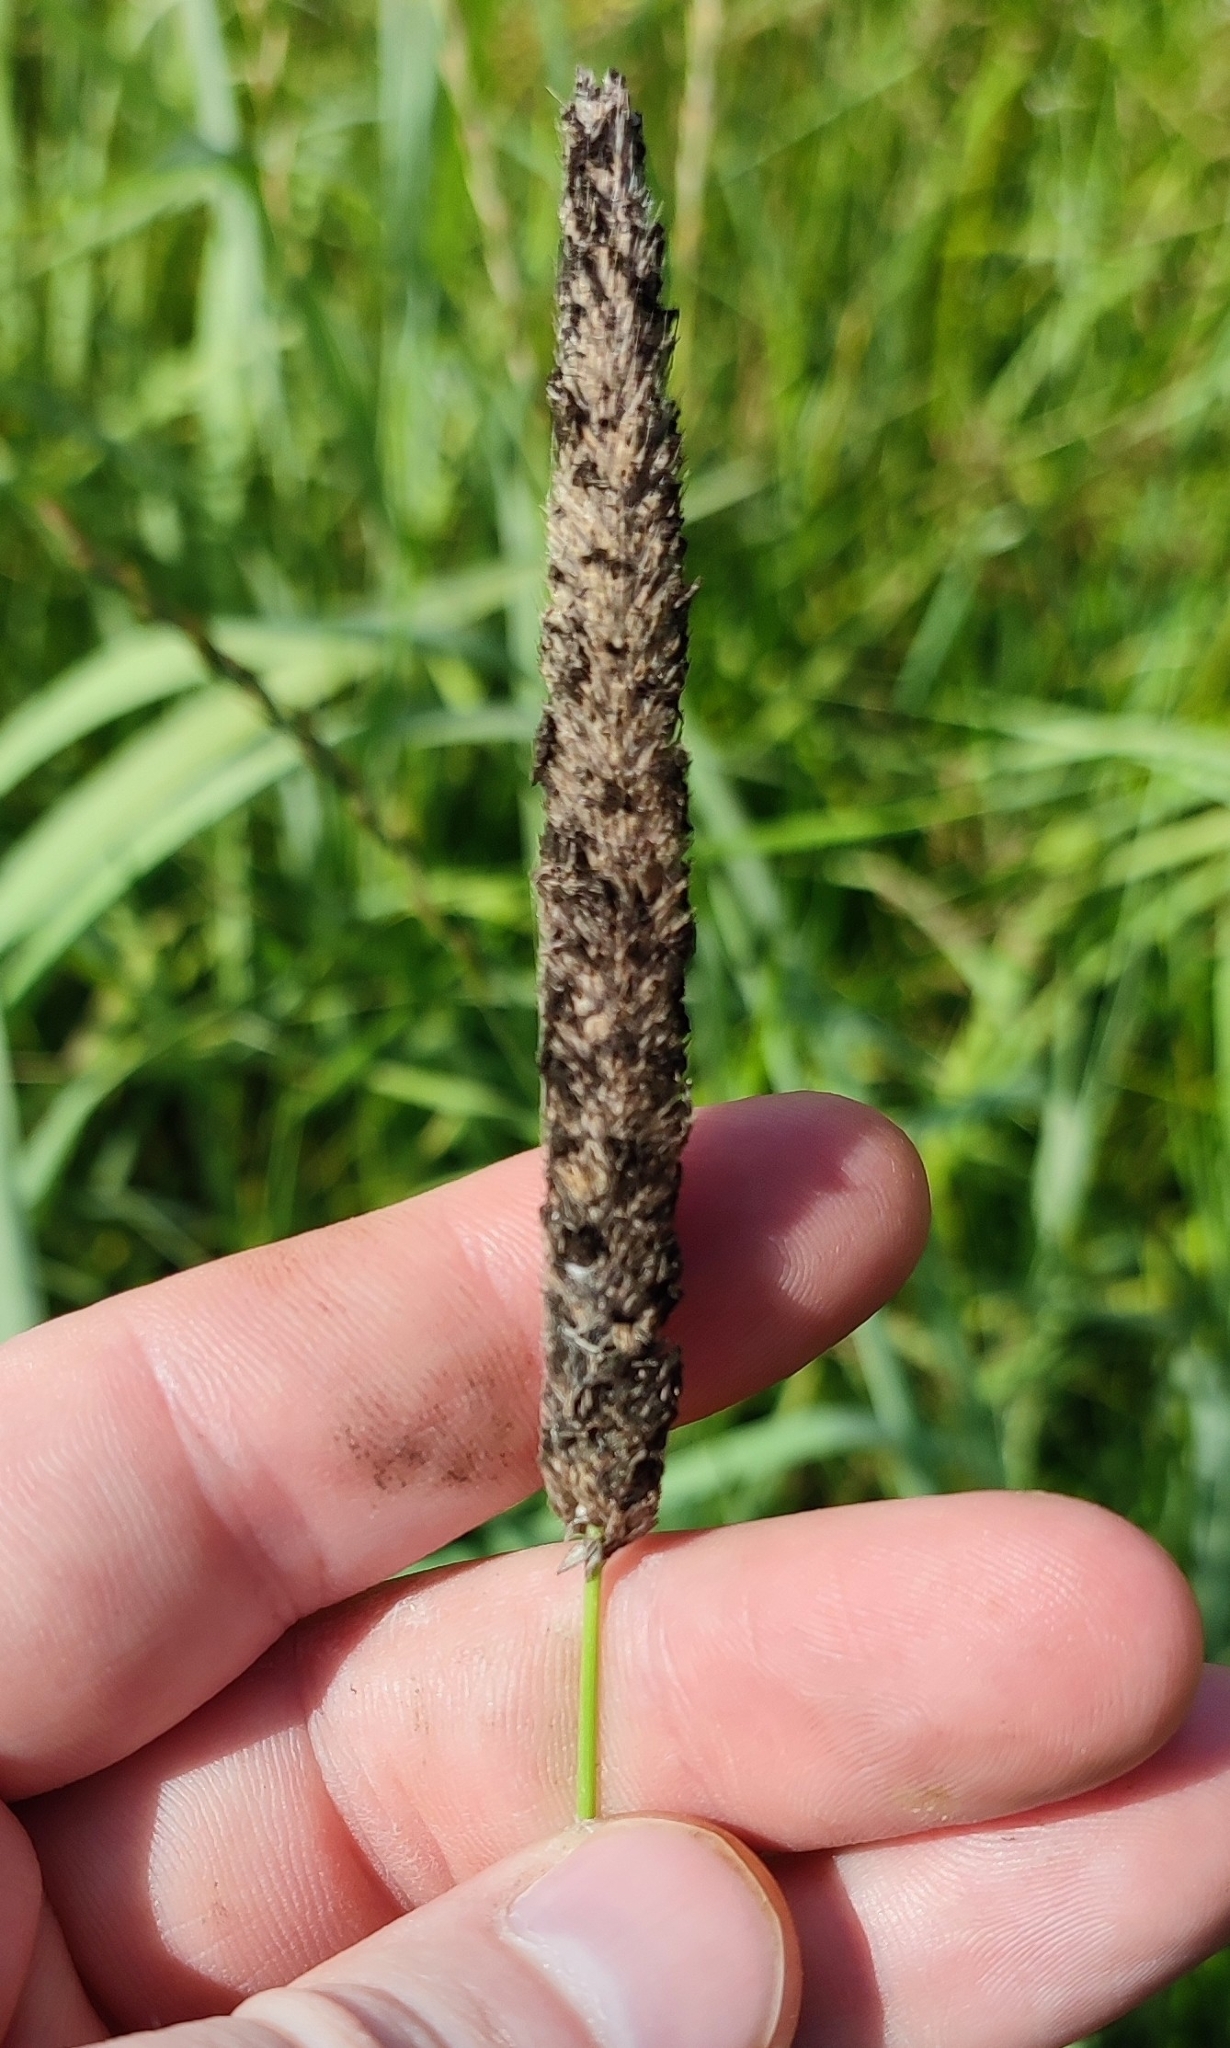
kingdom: Plantae
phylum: Tracheophyta
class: Liliopsida
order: Poales
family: Poaceae
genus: Alopecurus
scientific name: Alopecurus pratensis
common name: Meadow foxtail
